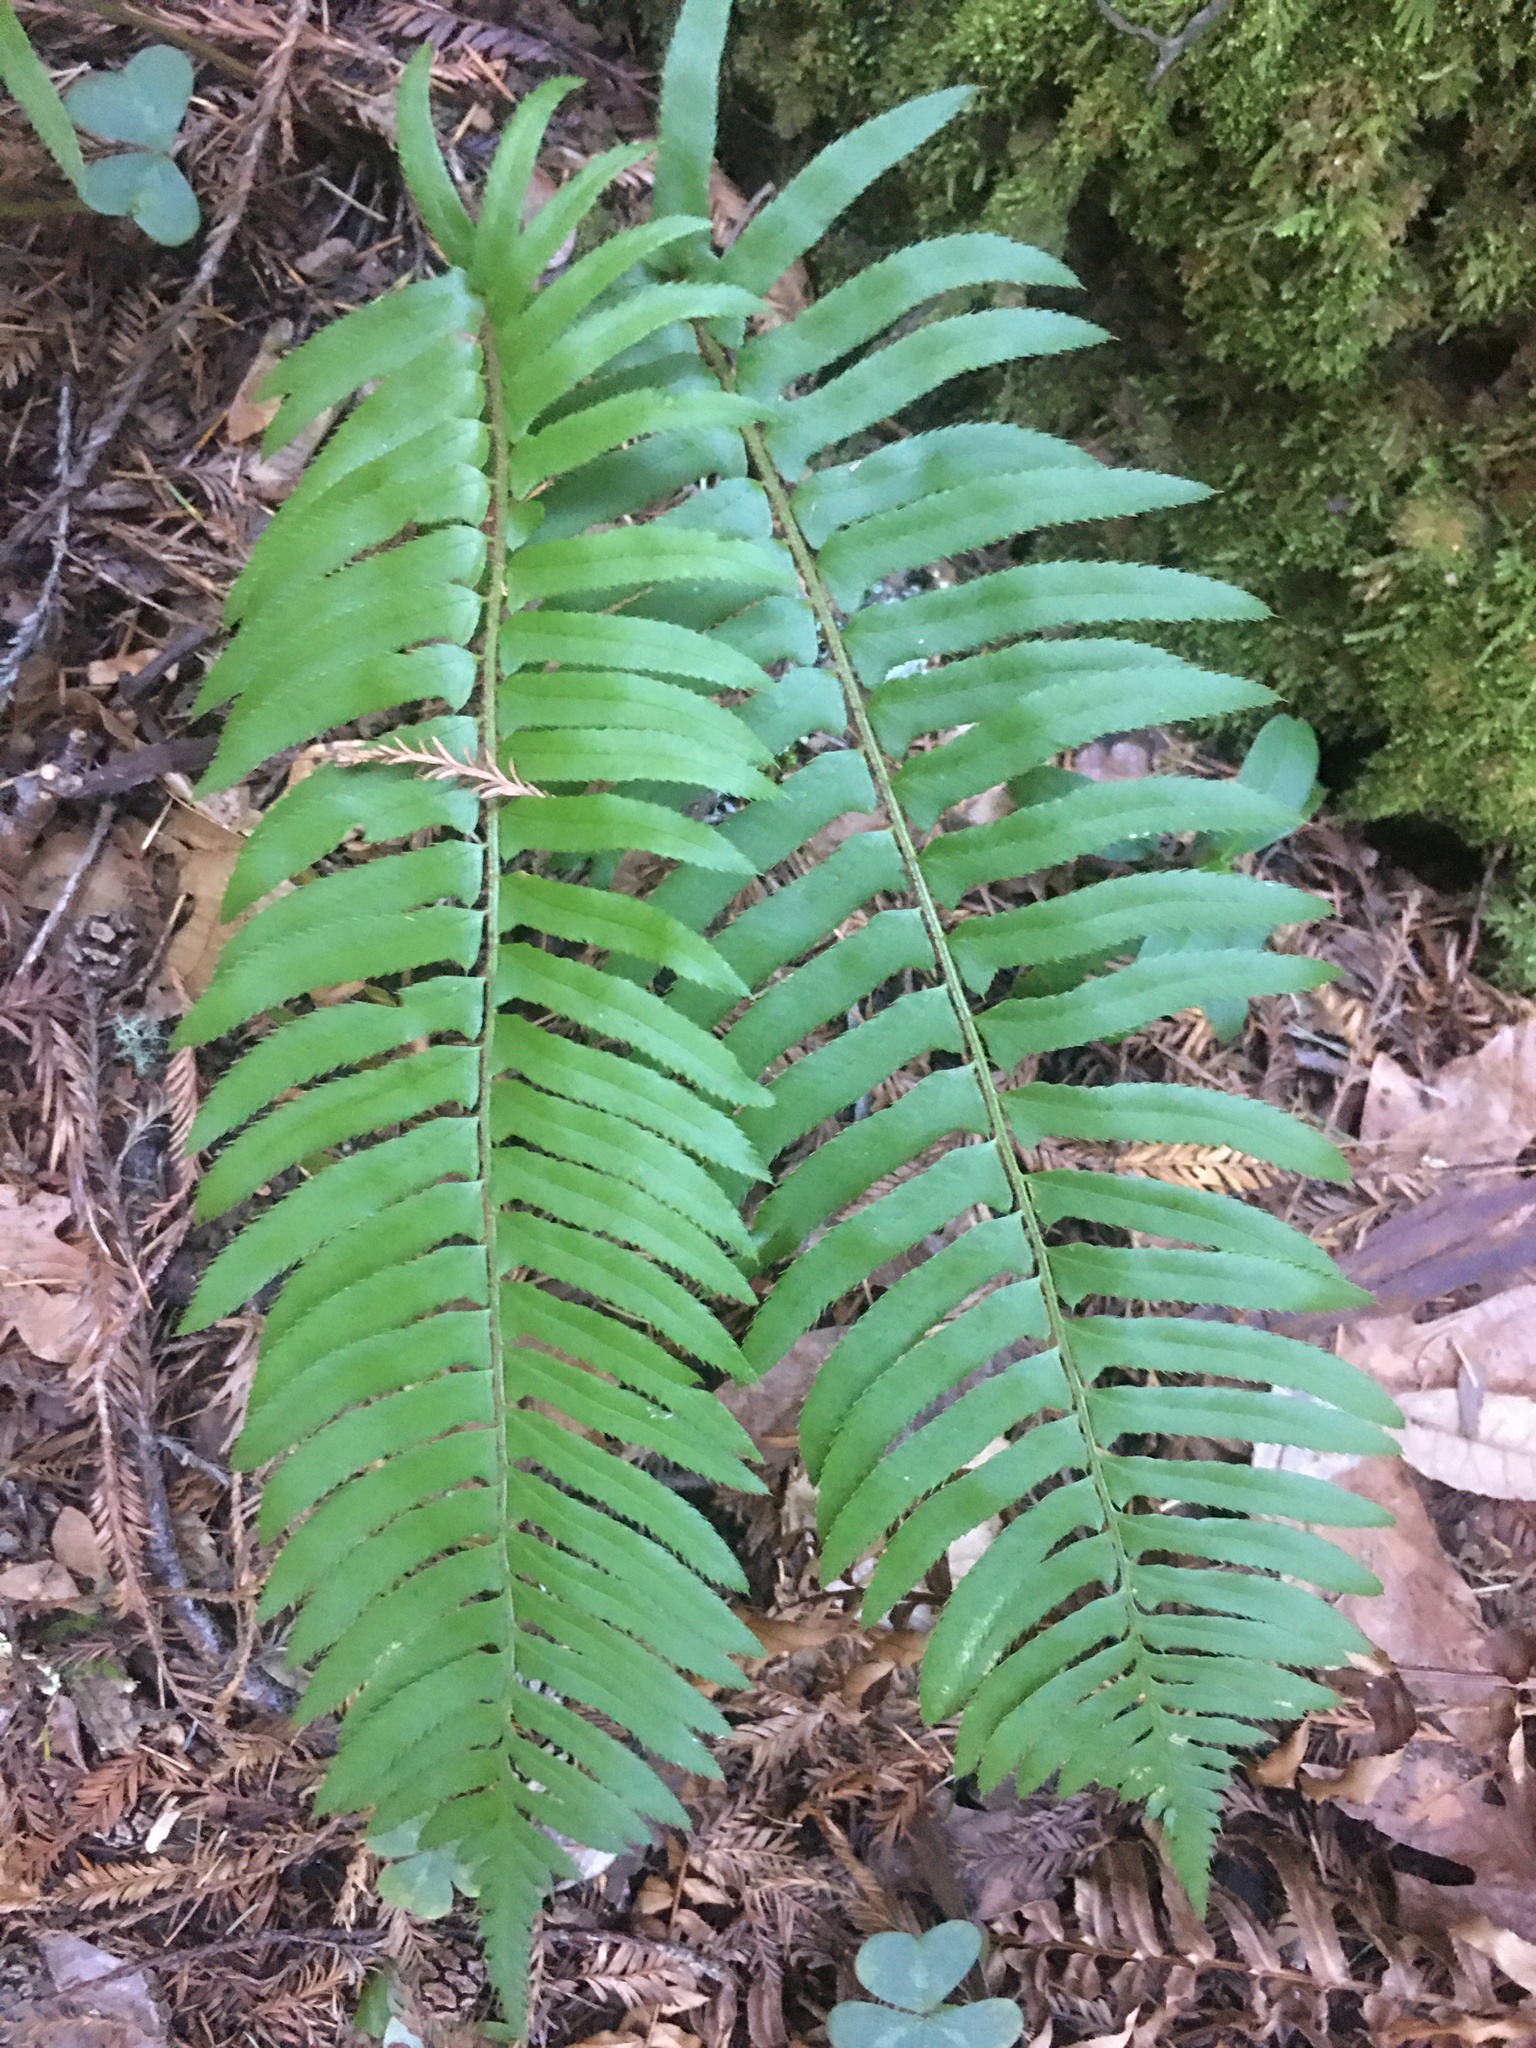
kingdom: Plantae
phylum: Tracheophyta
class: Polypodiopsida
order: Polypodiales
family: Dryopteridaceae
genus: Polystichum
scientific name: Polystichum munitum
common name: Western sword-fern
